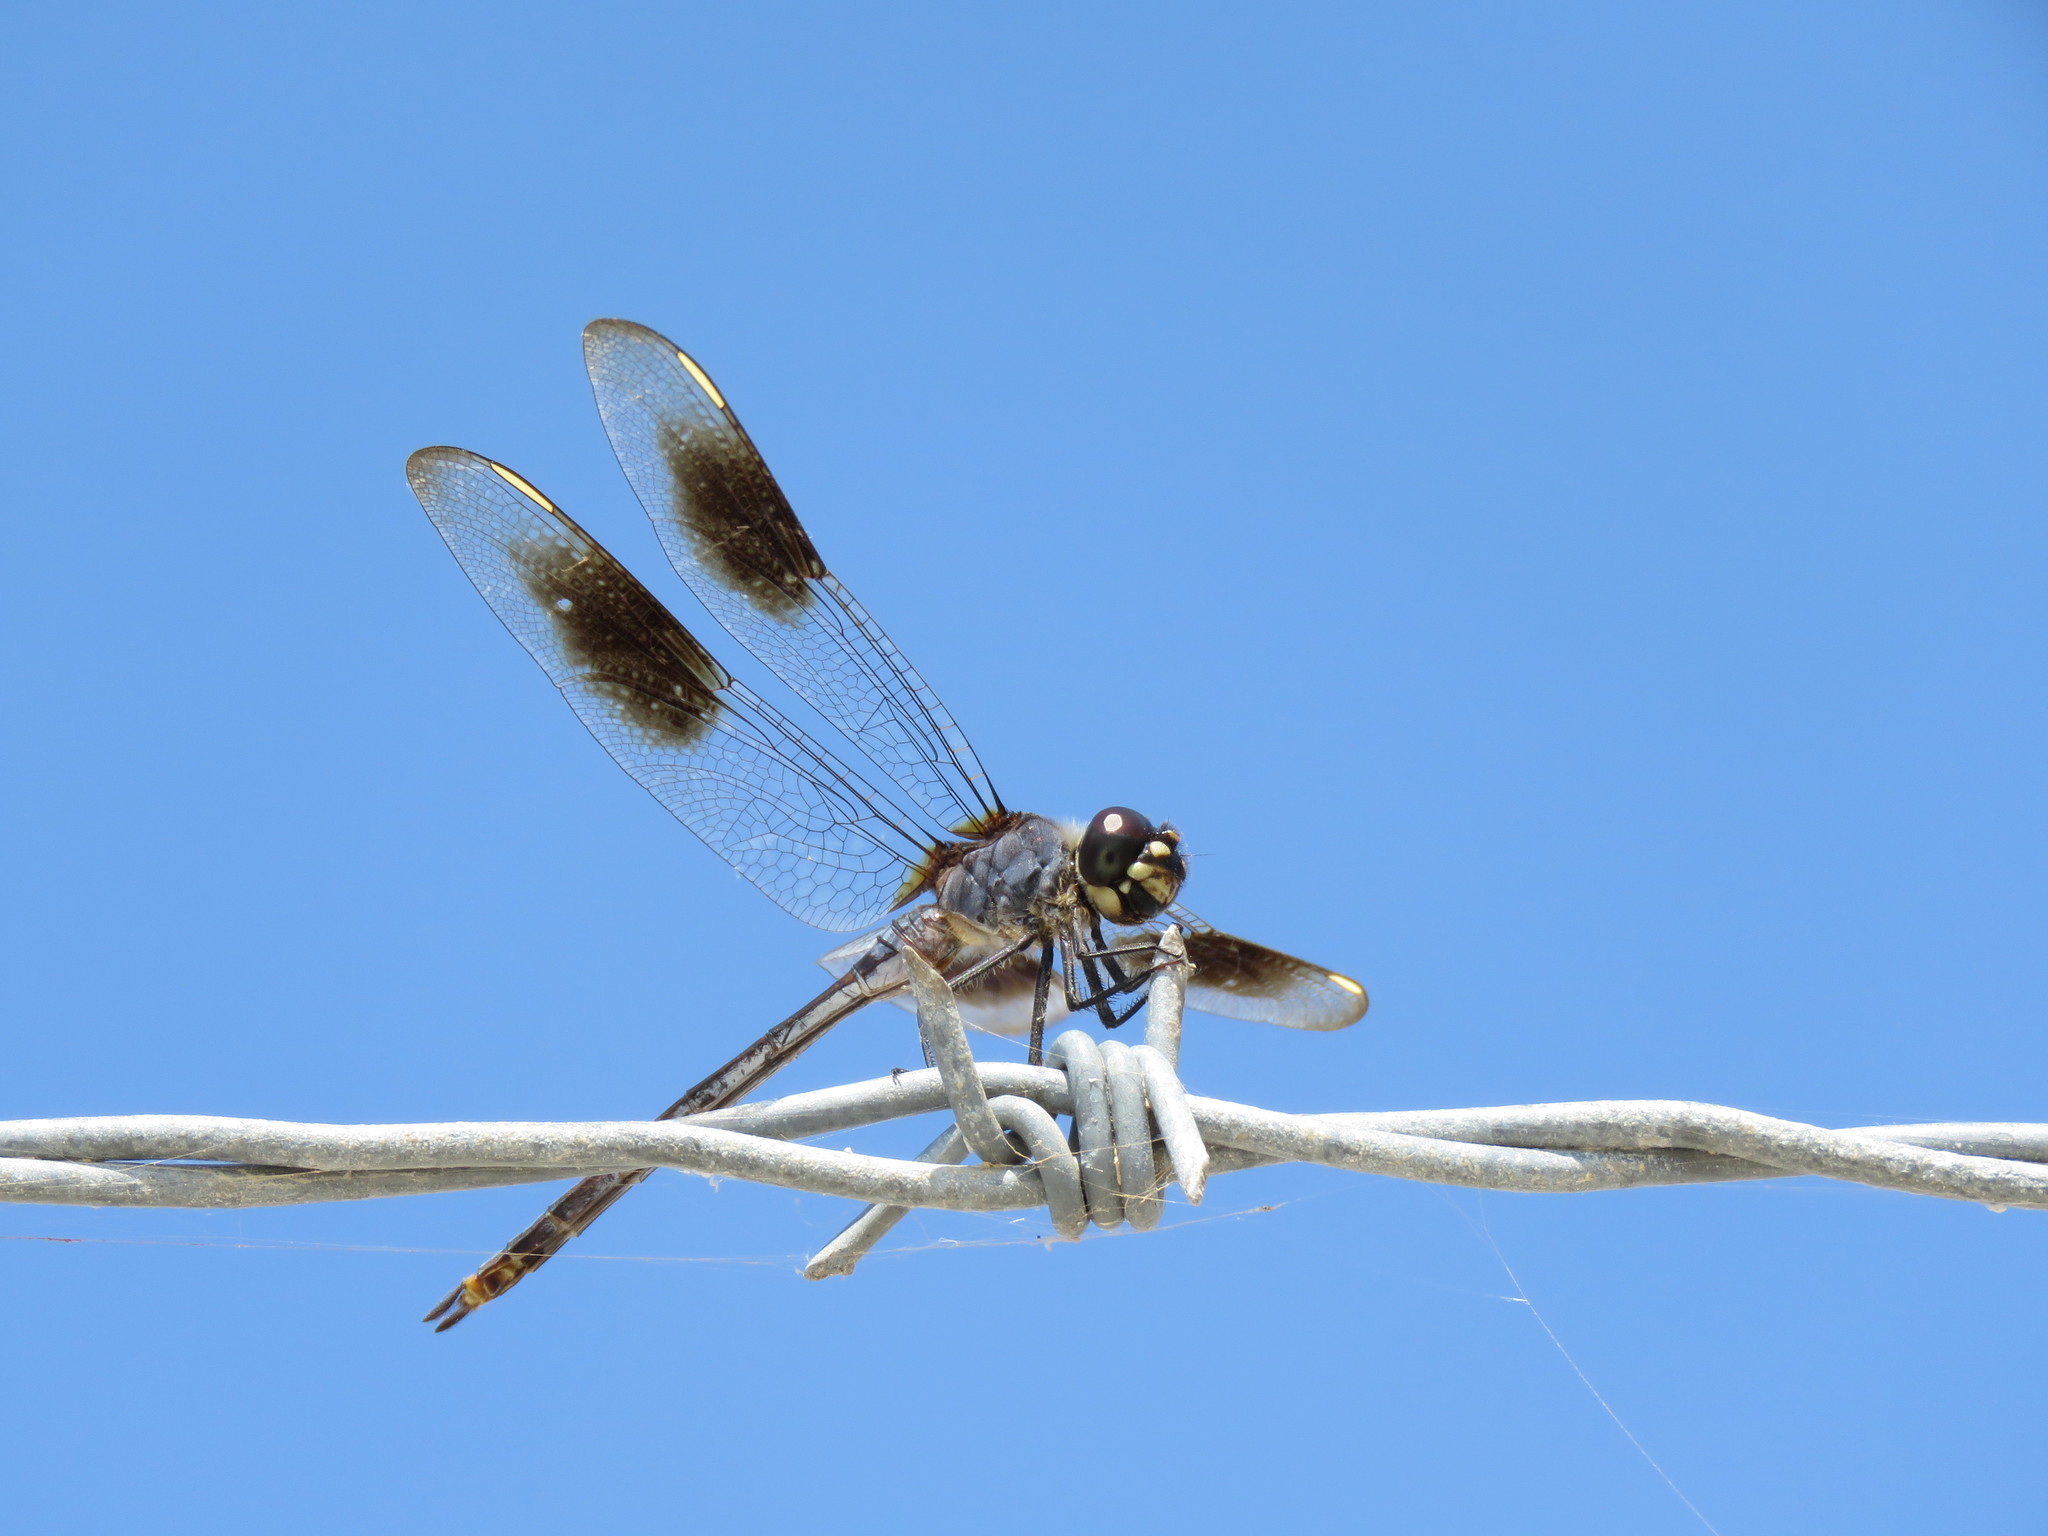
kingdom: Animalia
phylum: Arthropoda
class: Insecta
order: Odonata
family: Libellulidae
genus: Brachymesia
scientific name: Brachymesia gravida
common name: Four-spotted pennant
